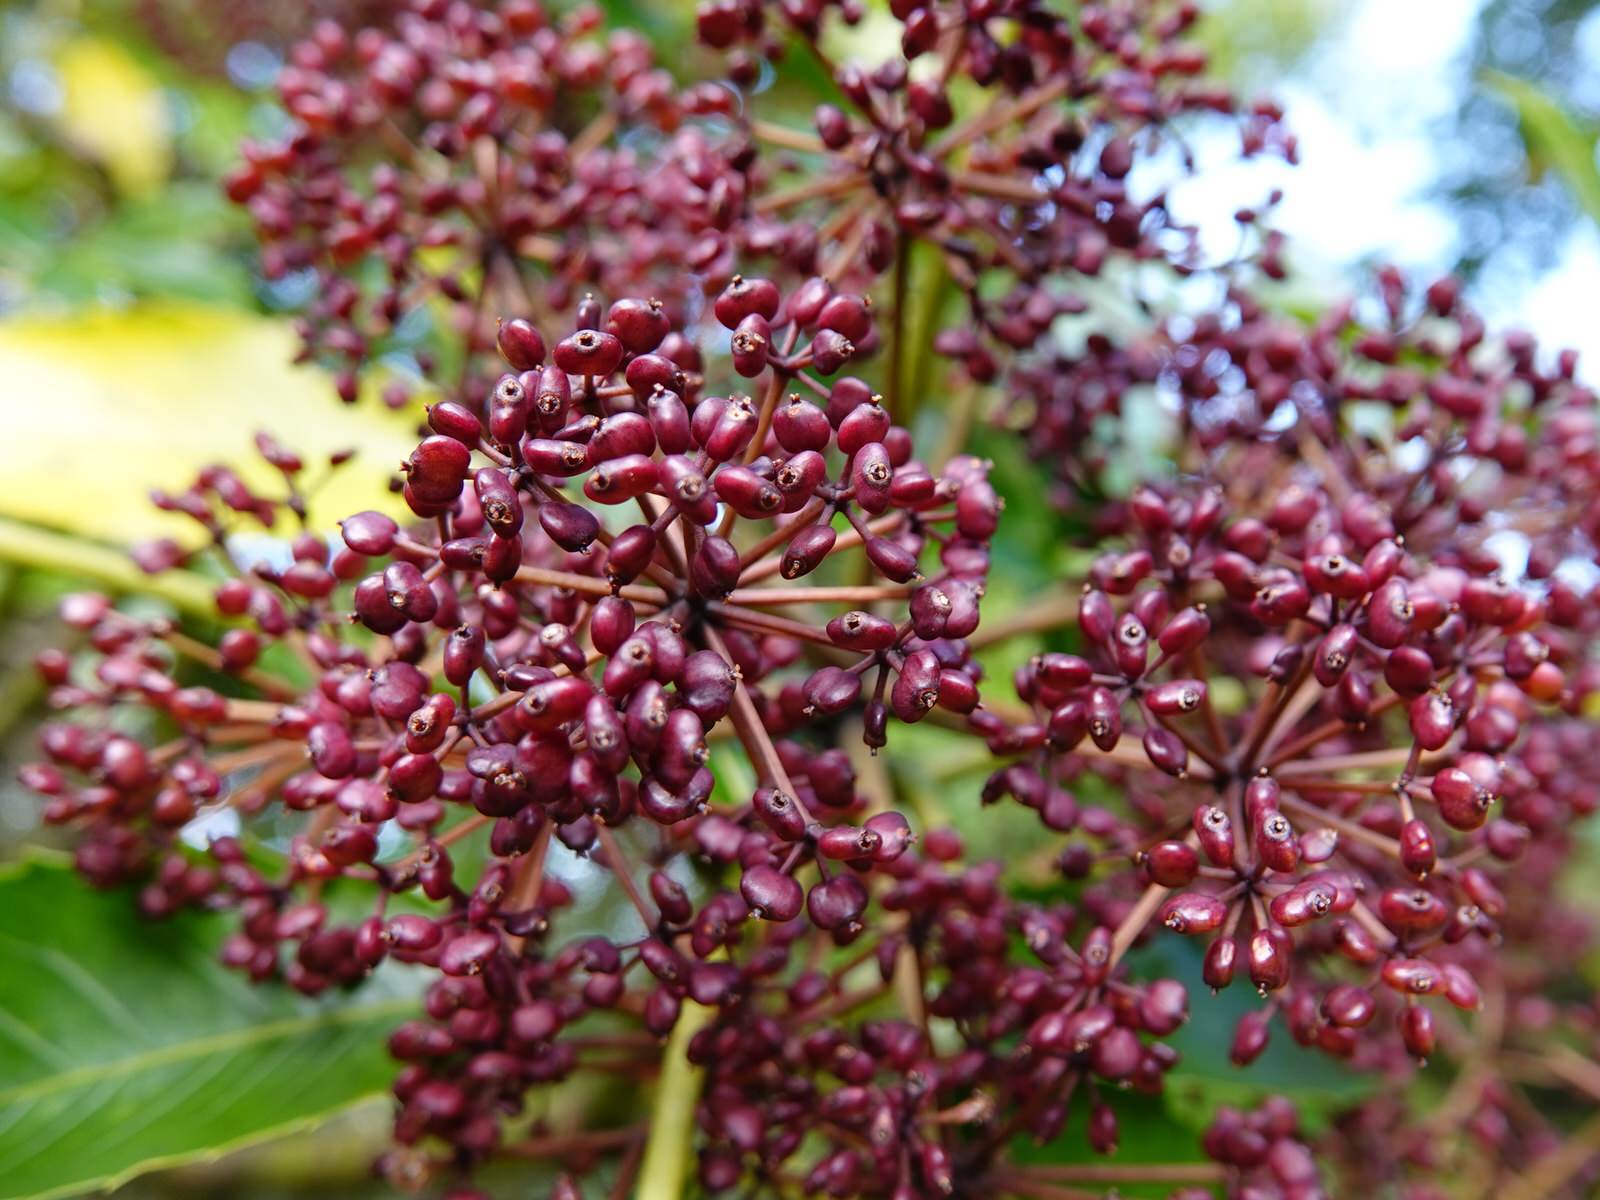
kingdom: Plantae
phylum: Tracheophyta
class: Magnoliopsida
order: Apiales
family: Araliaceae
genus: Neopanax
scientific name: Neopanax arboreus
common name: Five-fingers
